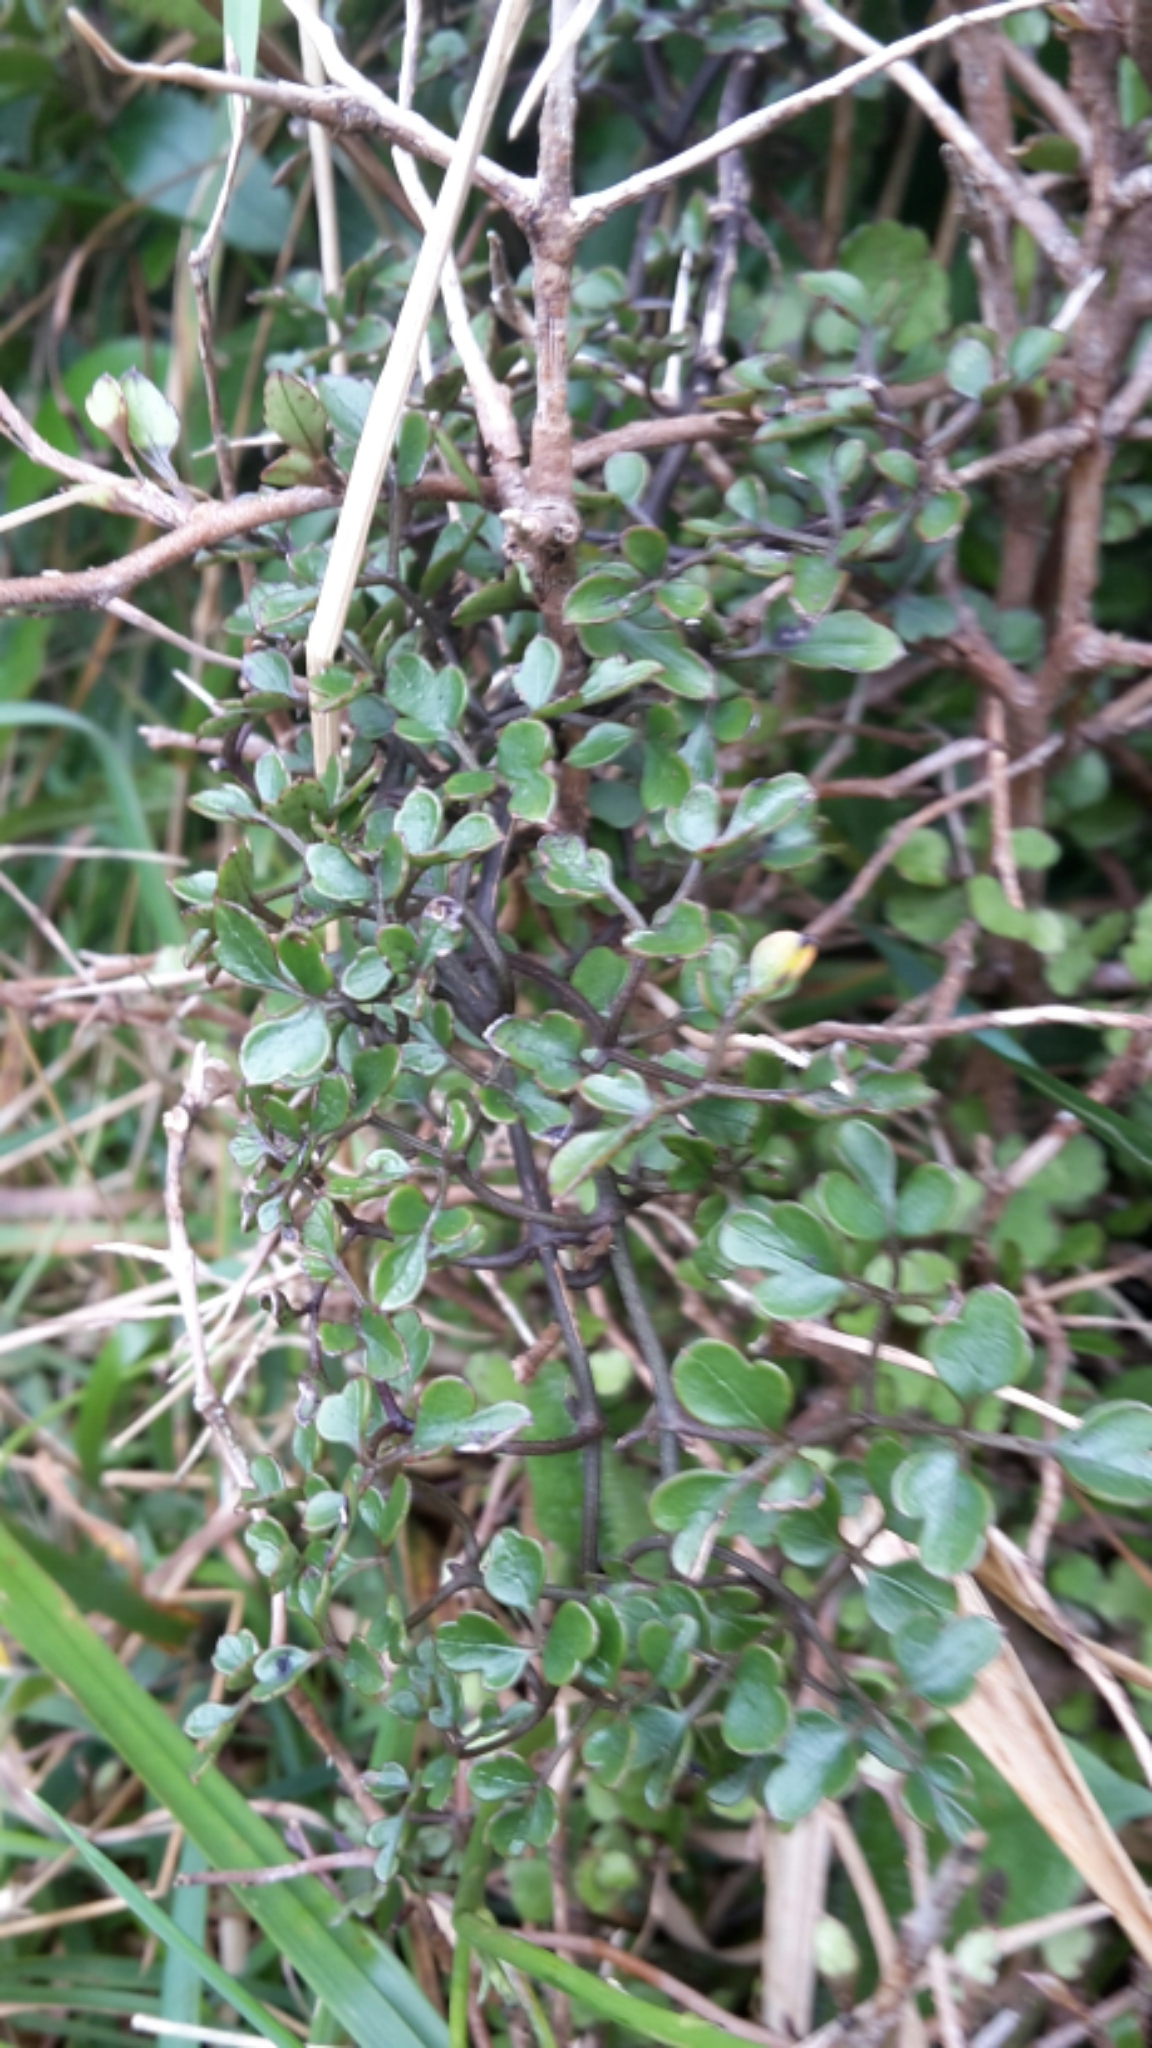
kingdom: Plantae
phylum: Tracheophyta
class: Magnoliopsida
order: Ranunculales
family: Ranunculaceae
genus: Clematis
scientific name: Clematis forsteri
